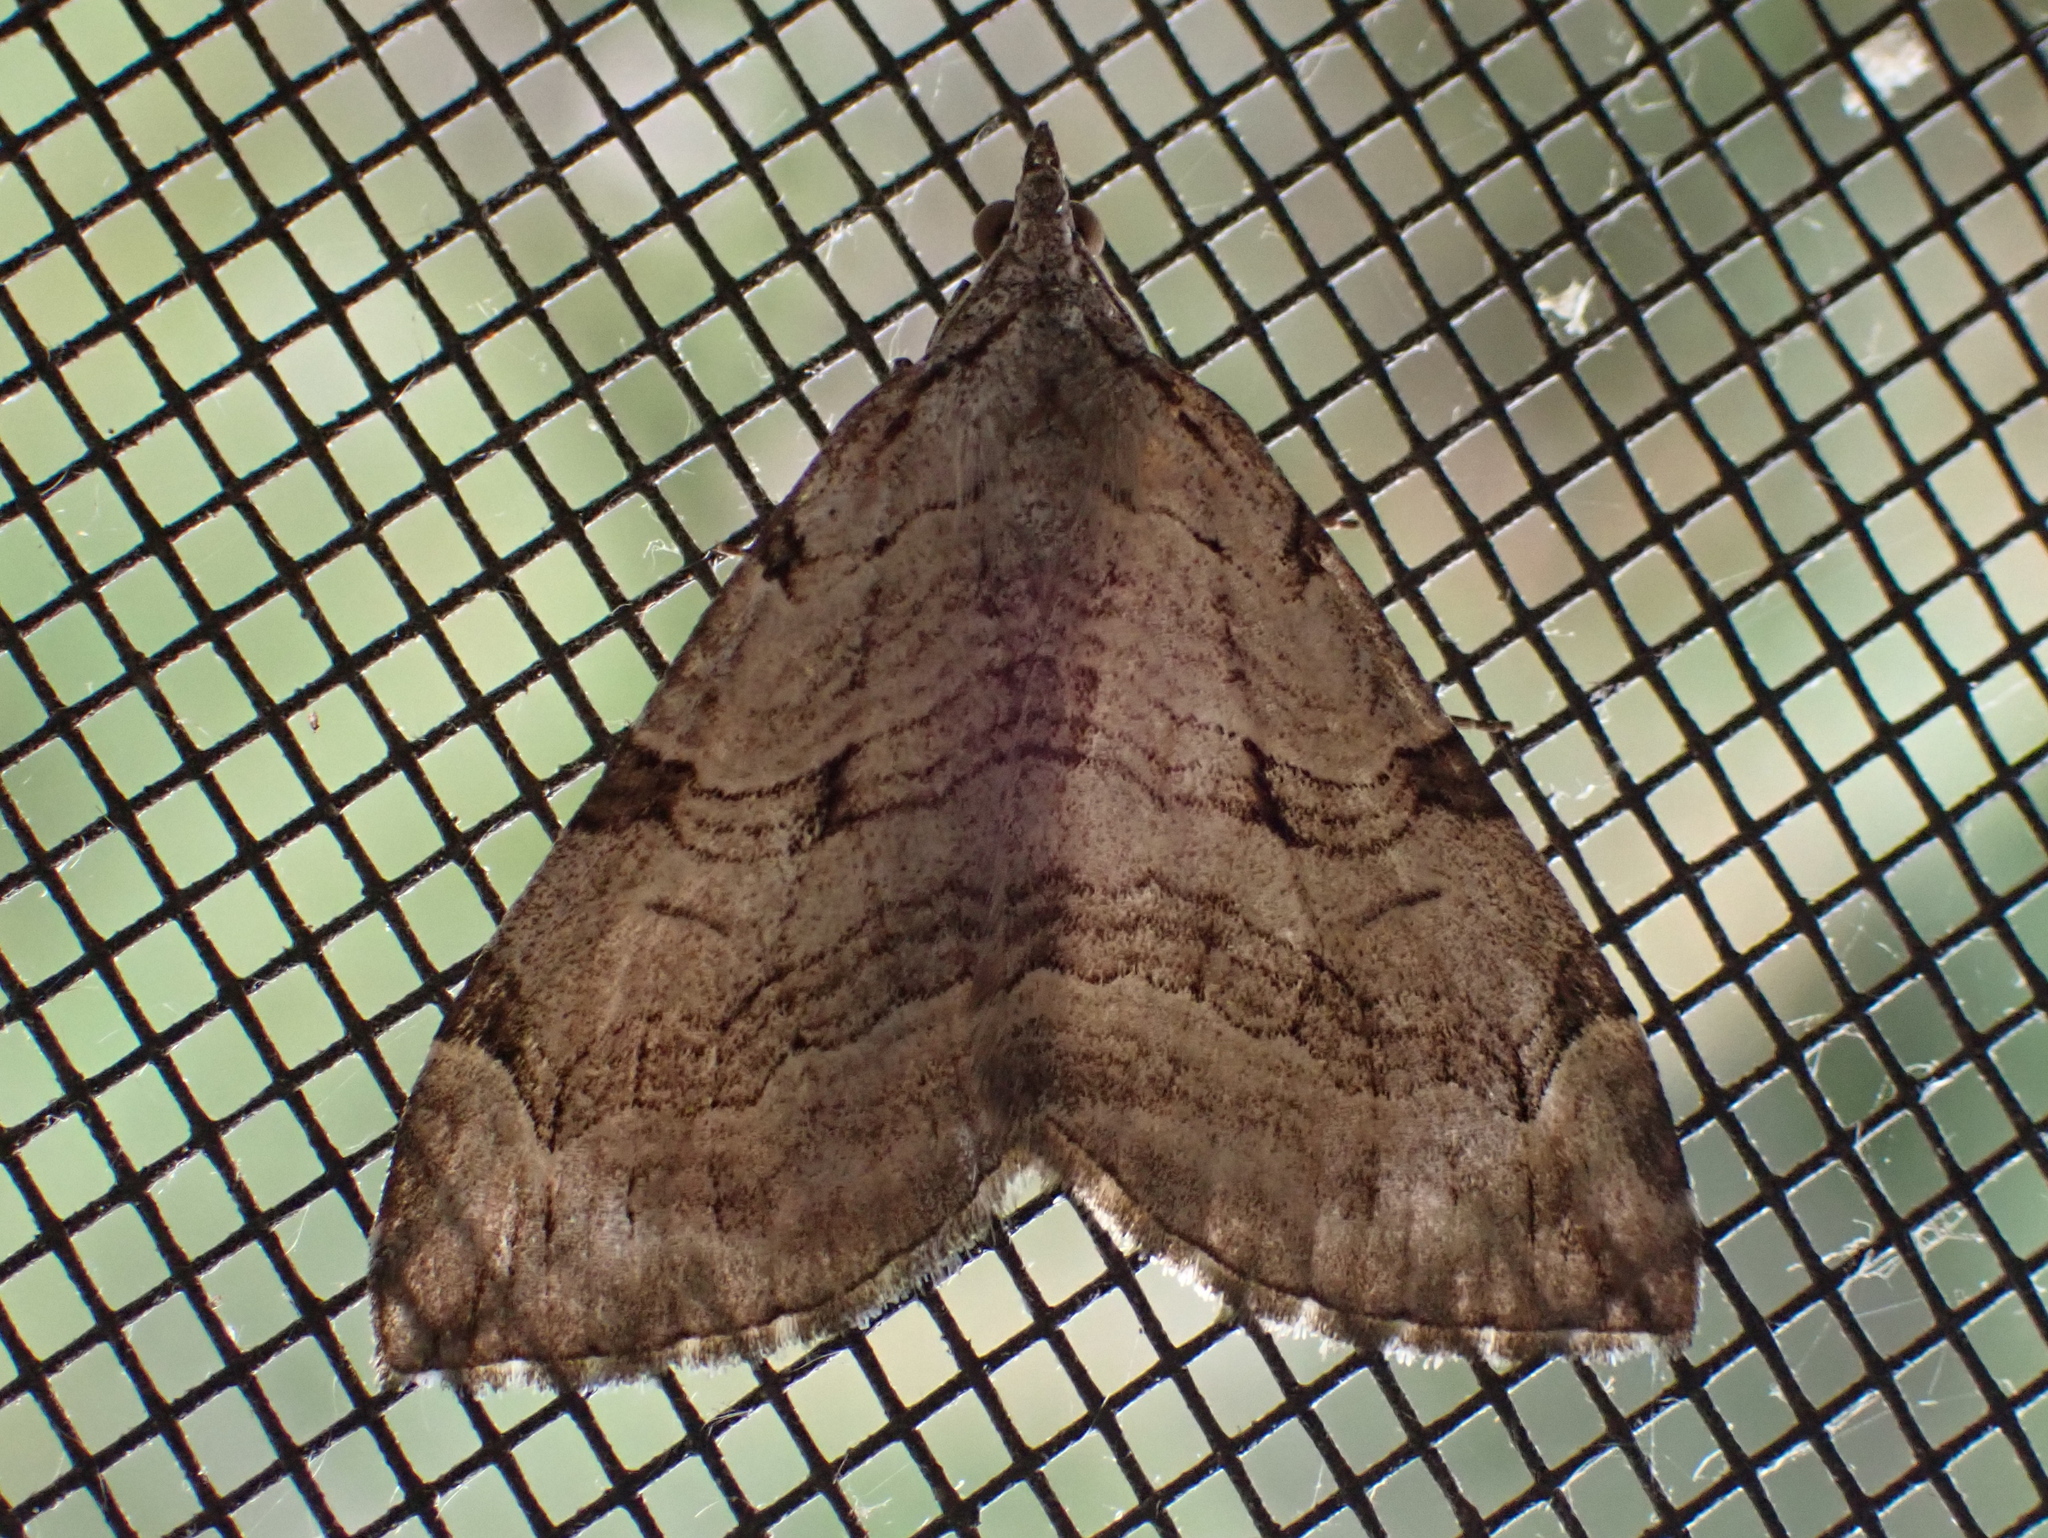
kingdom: Animalia
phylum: Arthropoda
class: Insecta
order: Lepidoptera
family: Geometridae
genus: Aplocera
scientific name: Aplocera plagiata
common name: Treble-bar
